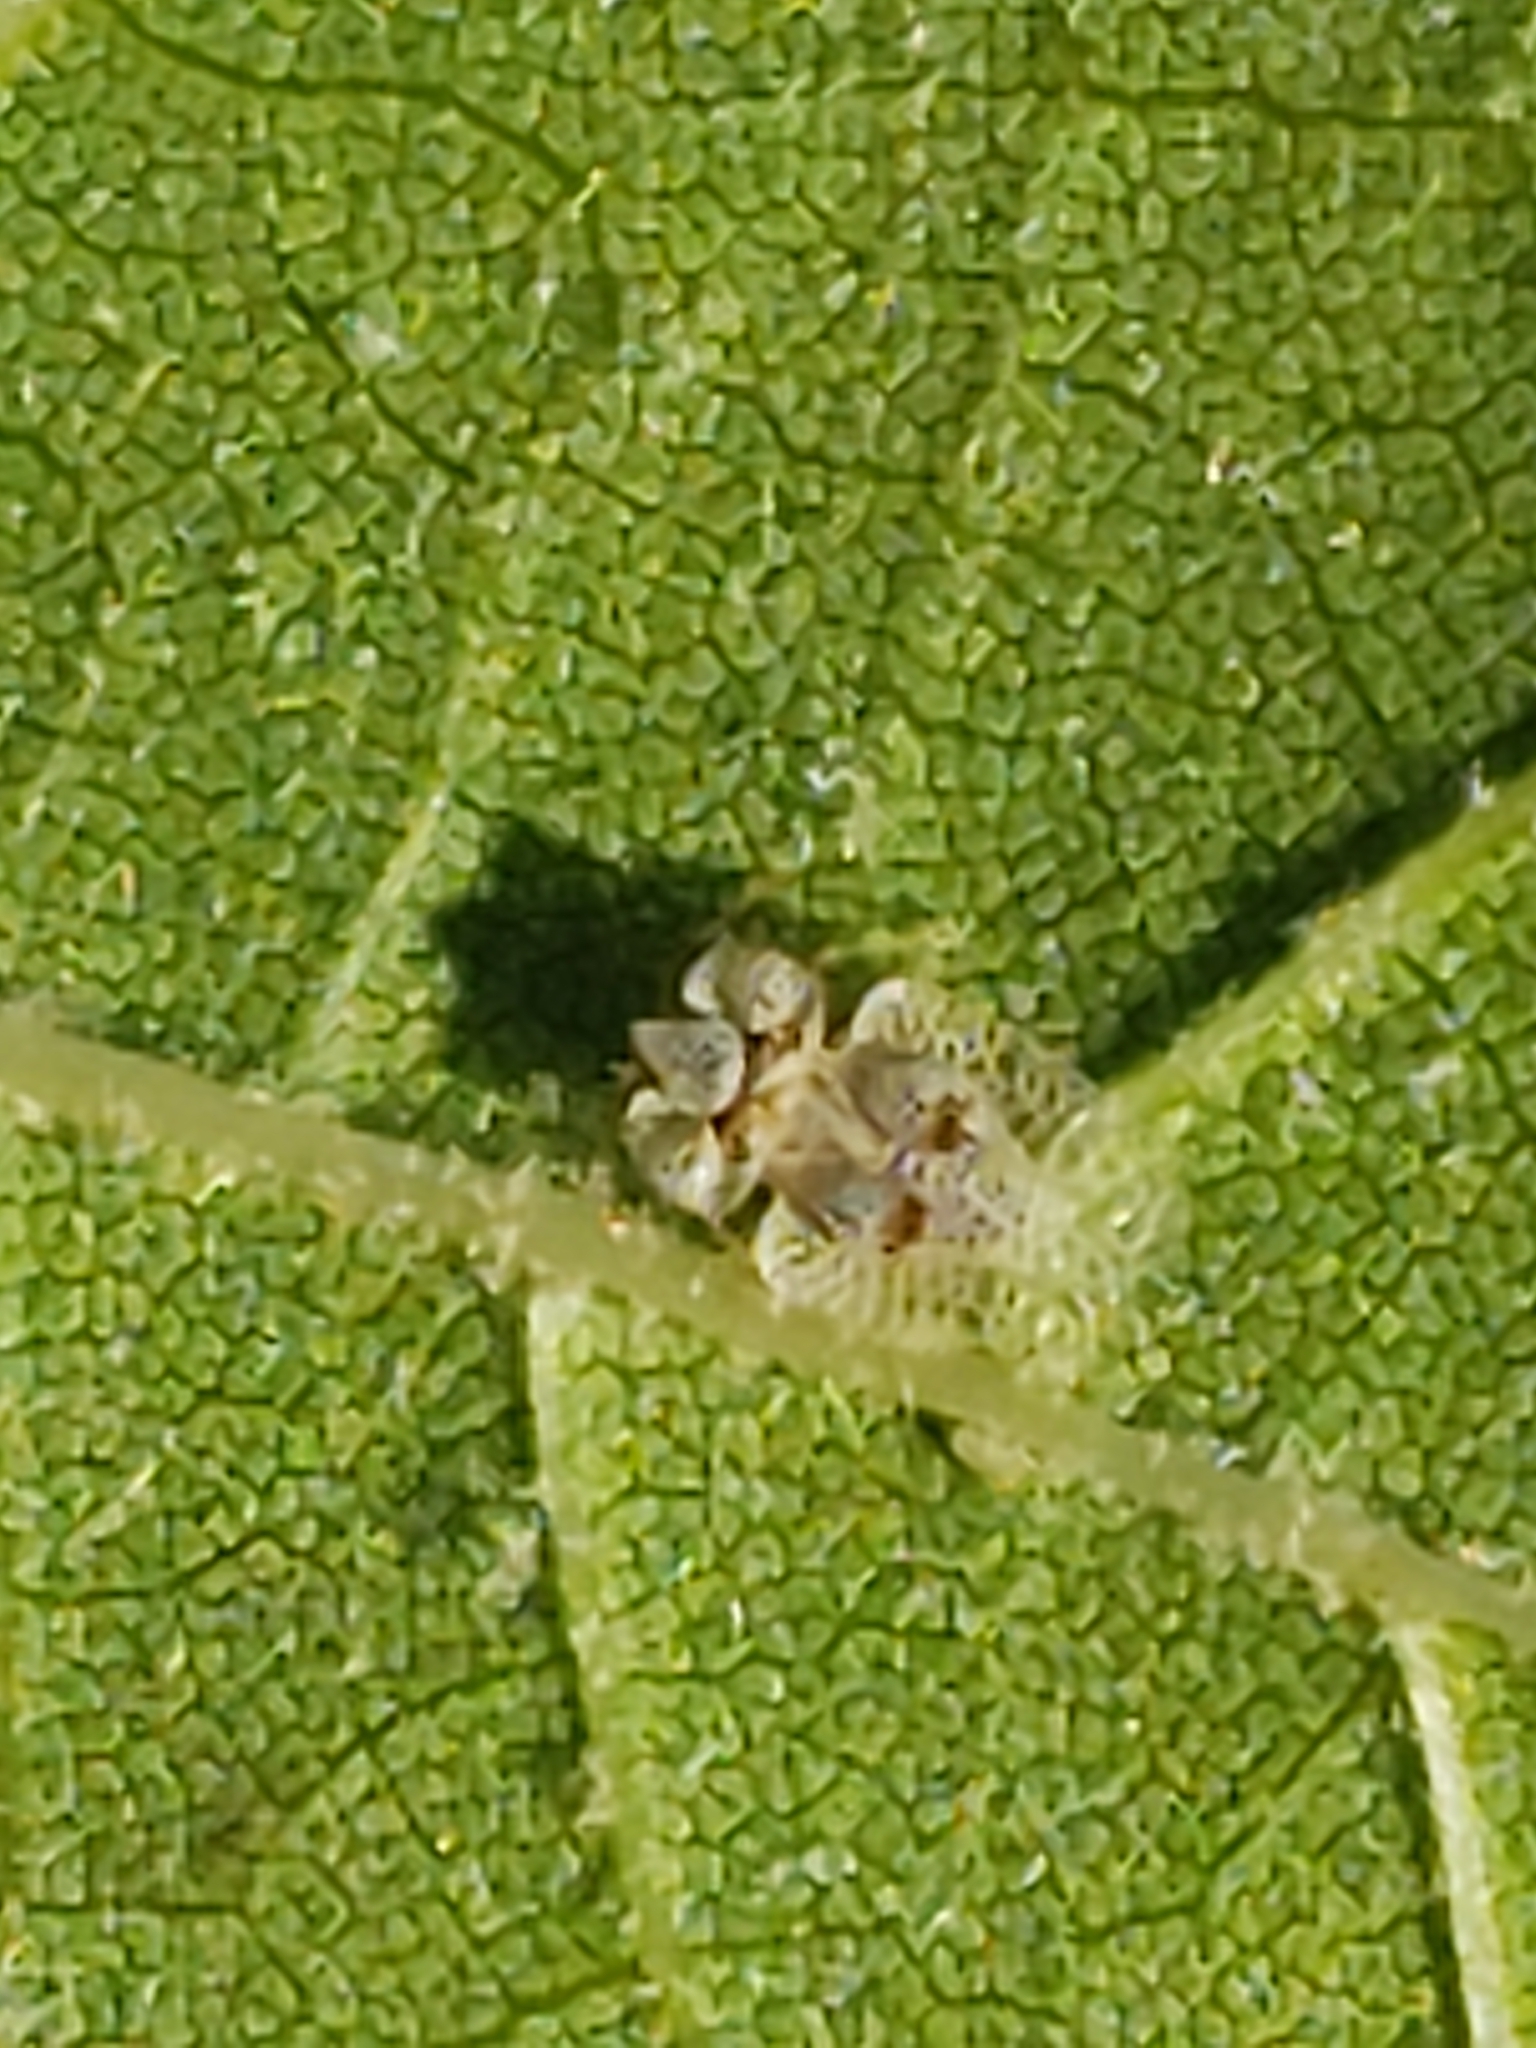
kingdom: Animalia
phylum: Arthropoda
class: Insecta
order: Hemiptera
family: Tingidae
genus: Corythucha
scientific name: Corythucha ciliata
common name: Sycamore lace bug
